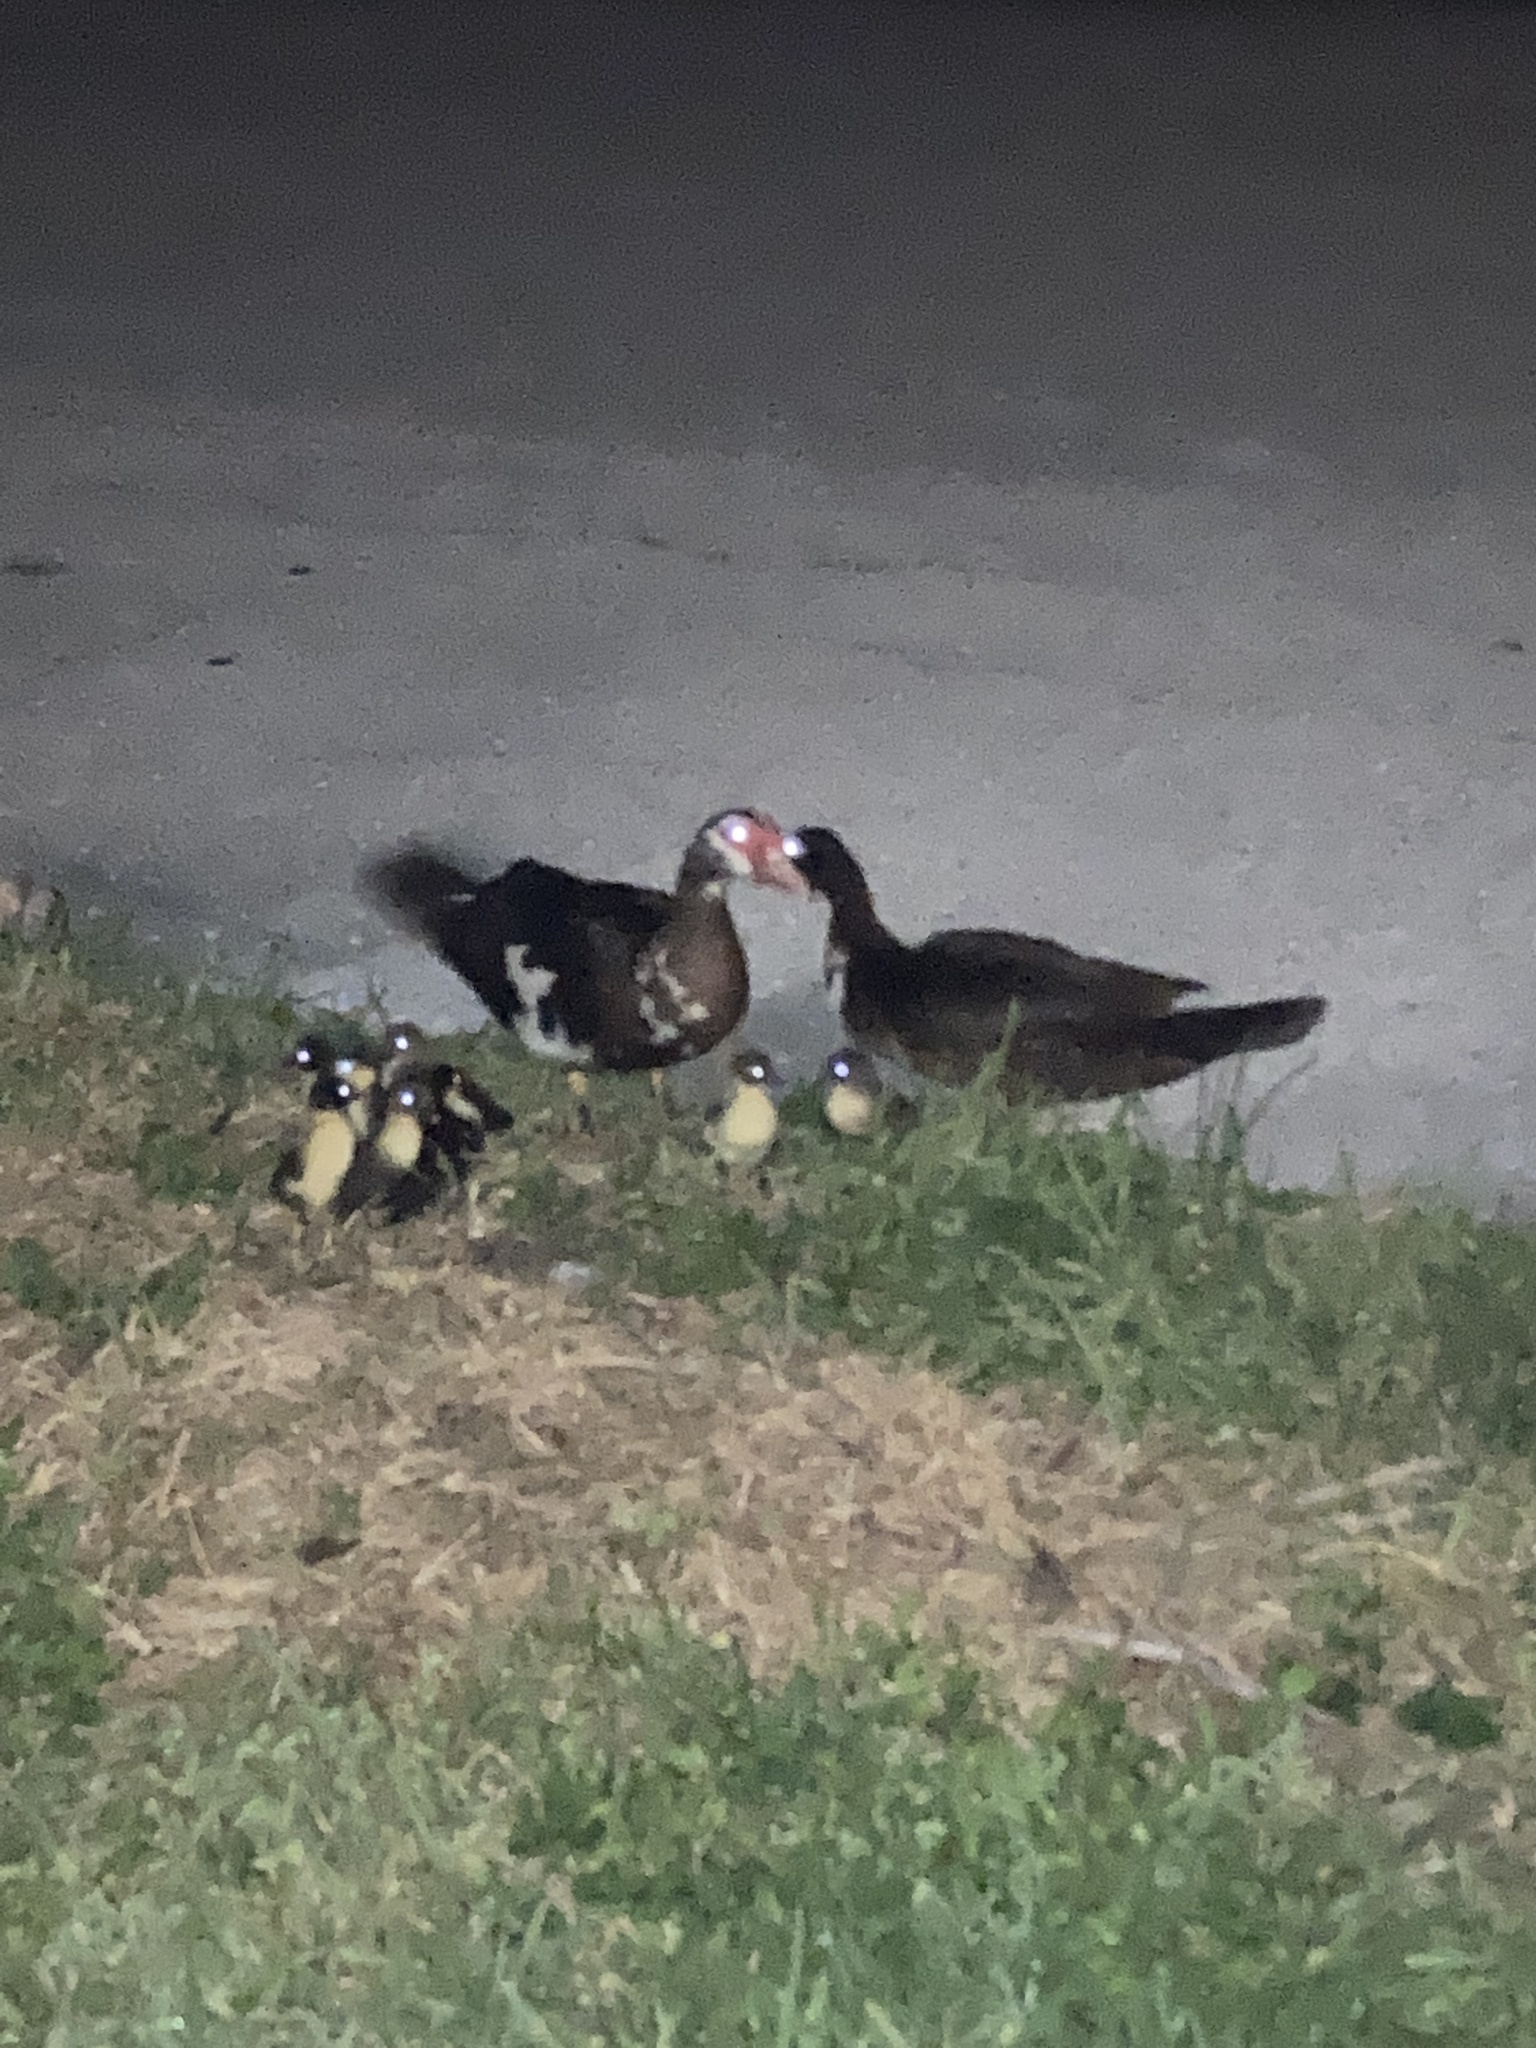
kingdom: Animalia
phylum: Chordata
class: Aves
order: Anseriformes
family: Anatidae
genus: Cairina
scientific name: Cairina moschata
